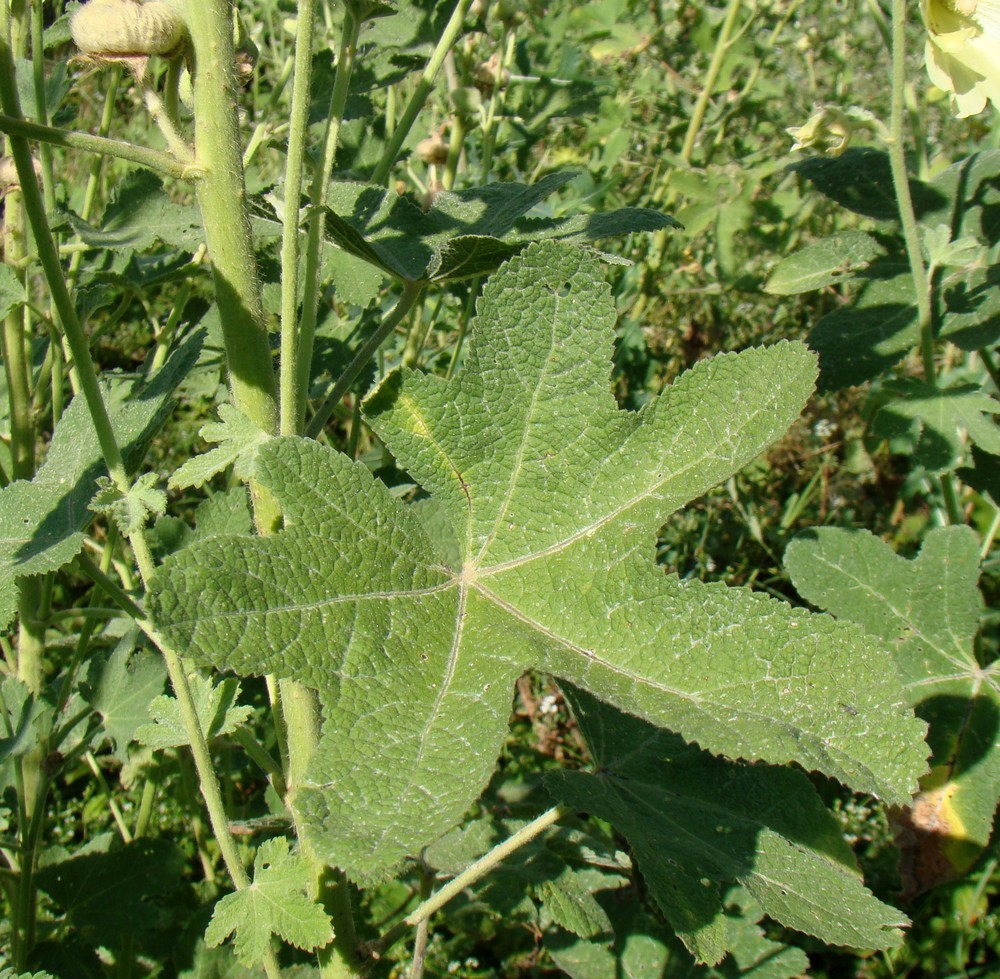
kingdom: Plantae
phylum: Tracheophyta
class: Magnoliopsida
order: Malvales
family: Malvaceae
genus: Alcea
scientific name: Alcea rugosa
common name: Russian hollyhock
